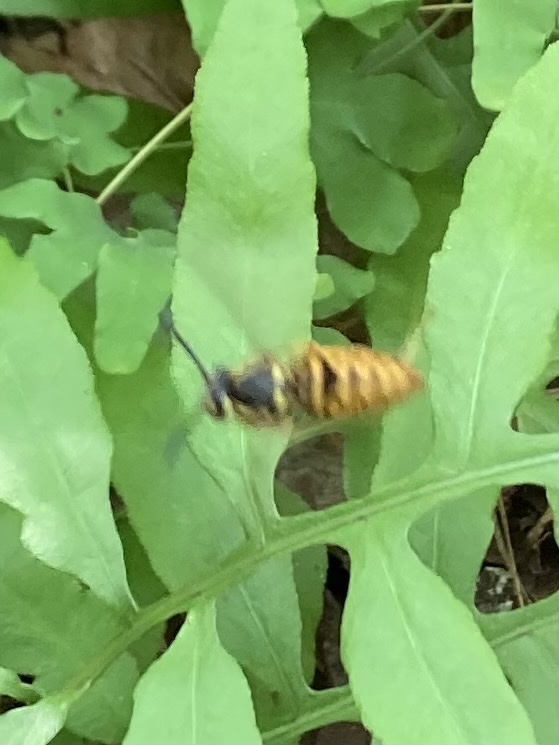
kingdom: Animalia
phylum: Arthropoda
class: Insecta
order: Hymenoptera
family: Vespidae
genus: Vespula
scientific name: Vespula maculifrons
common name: Eastern yellowjacket
